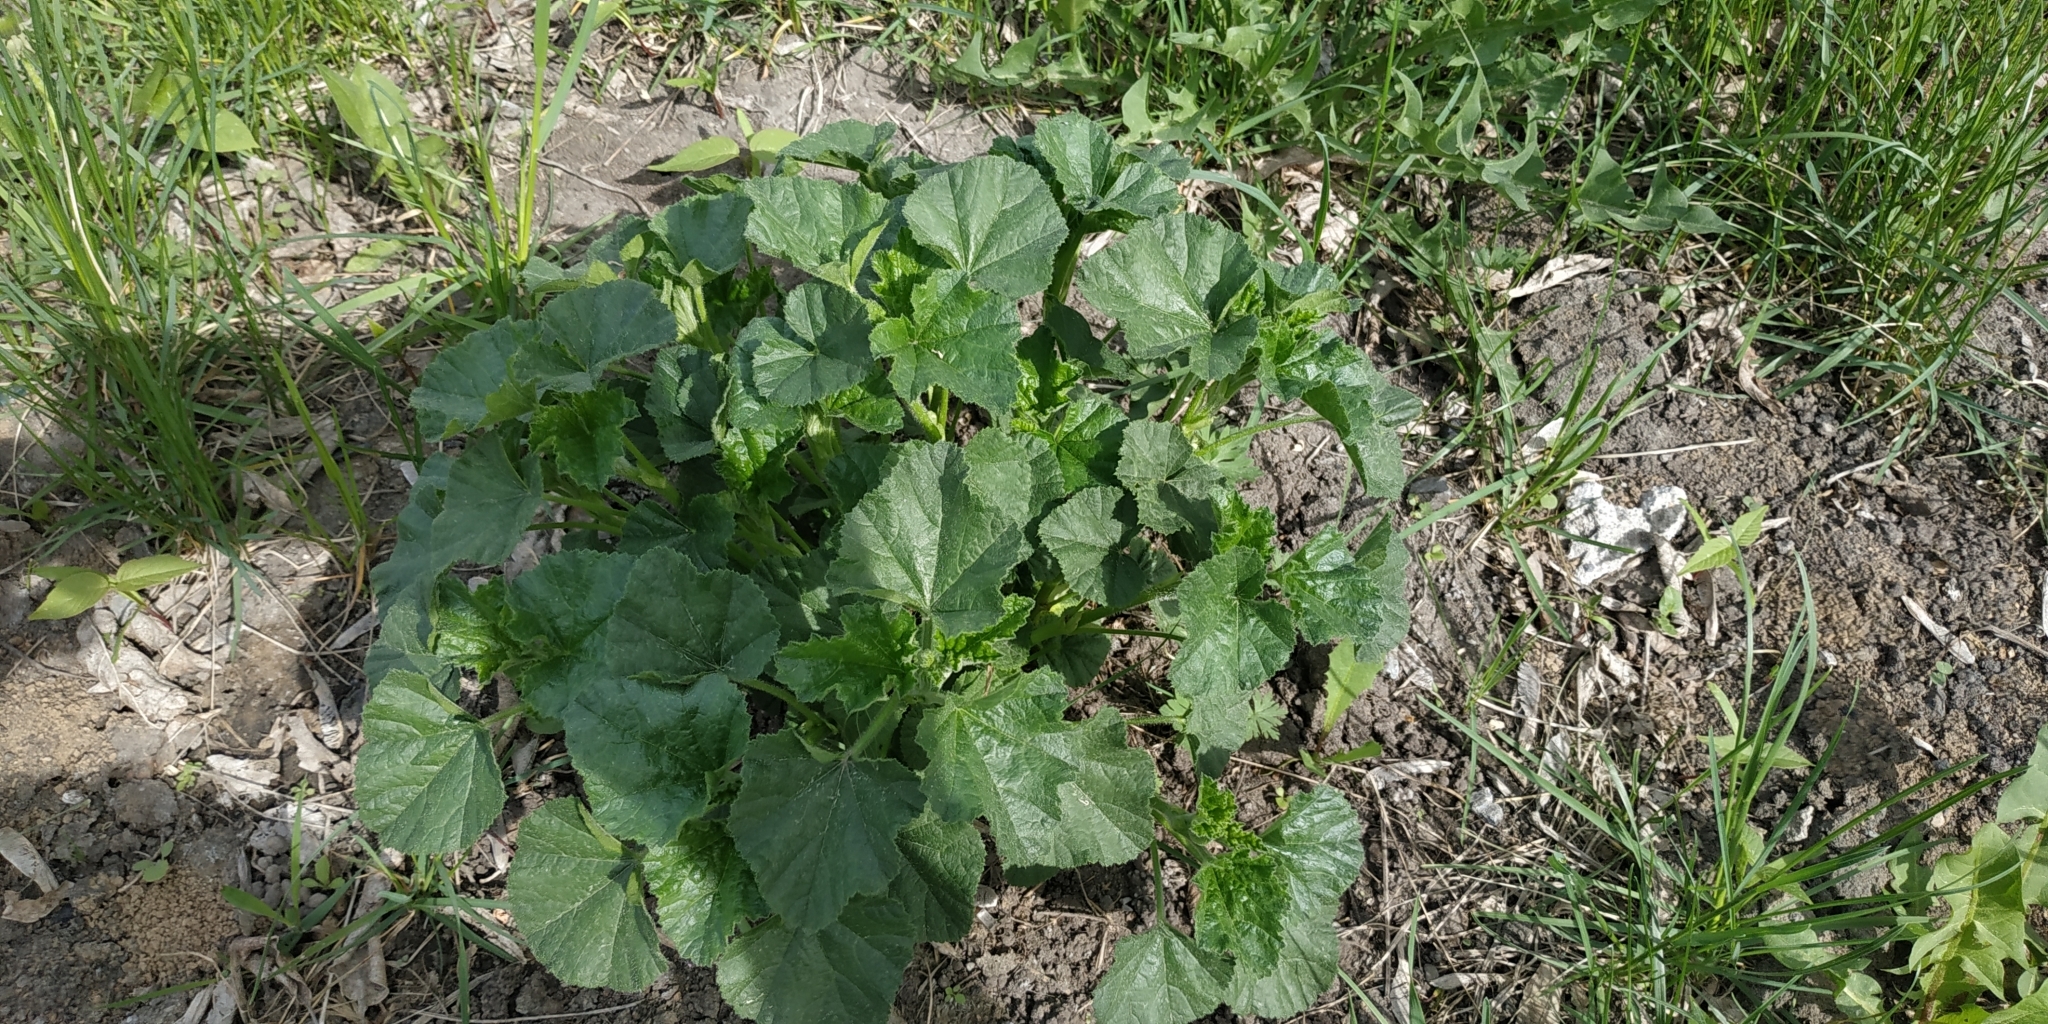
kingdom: Plantae
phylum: Tracheophyta
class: Magnoliopsida
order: Malvales
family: Malvaceae
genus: Malva
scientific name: Malva pusilla
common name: Small mallow
